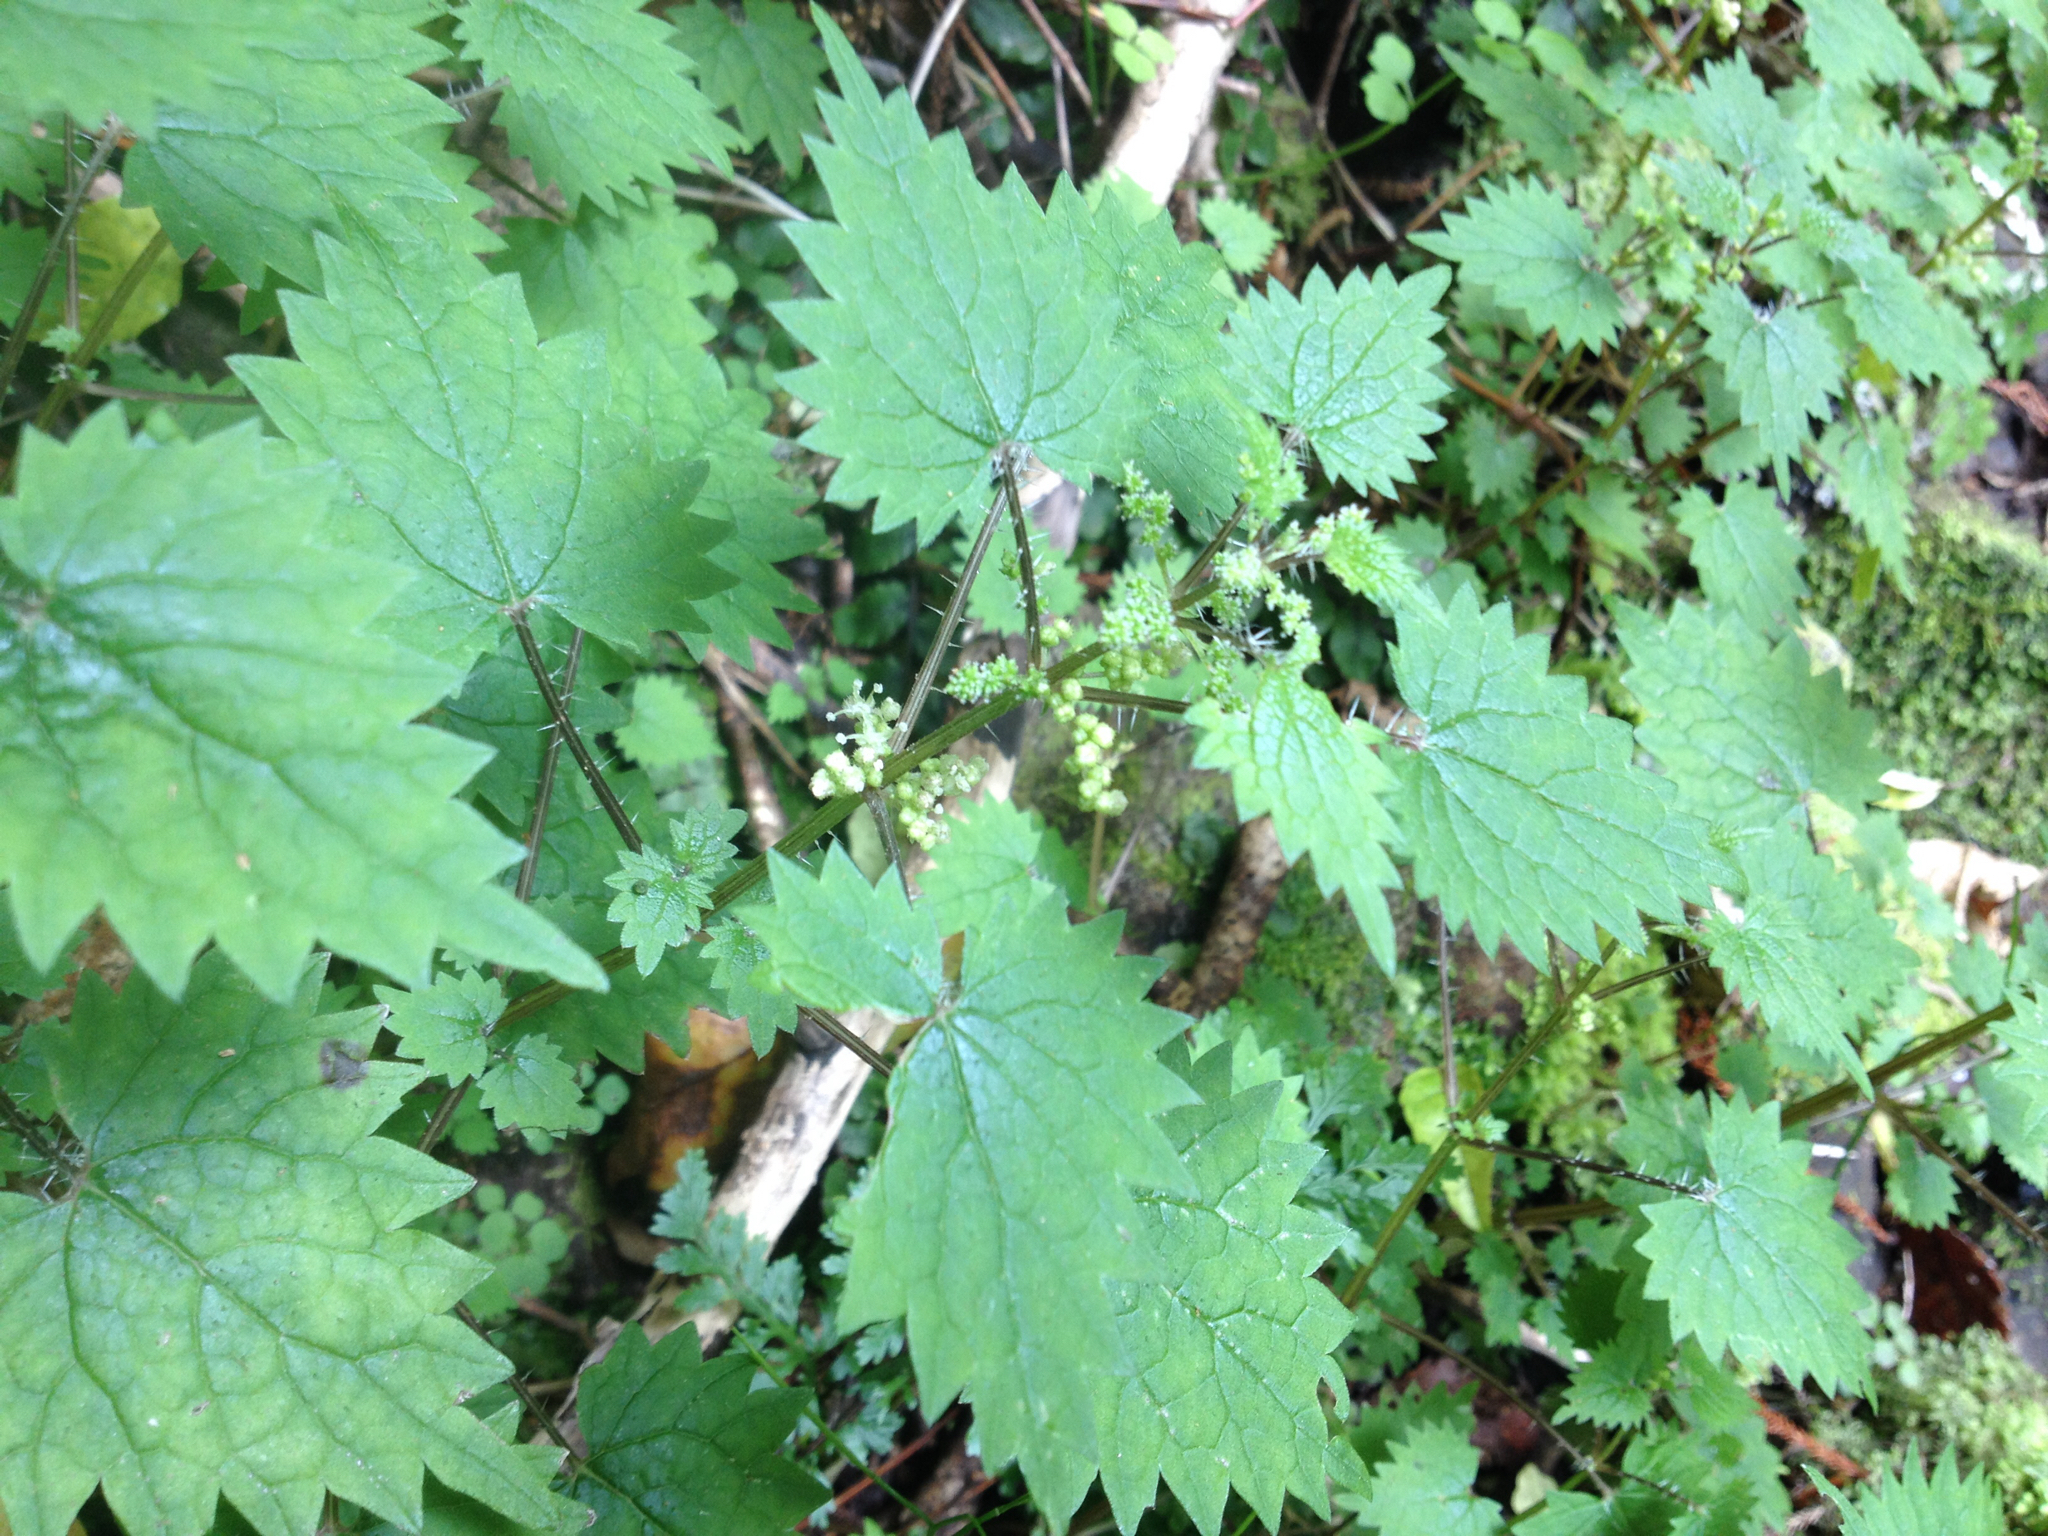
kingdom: Plantae
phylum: Tracheophyta
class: Magnoliopsida
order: Rosales
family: Urticaceae
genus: Urtica
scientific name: Urtica sykesii
